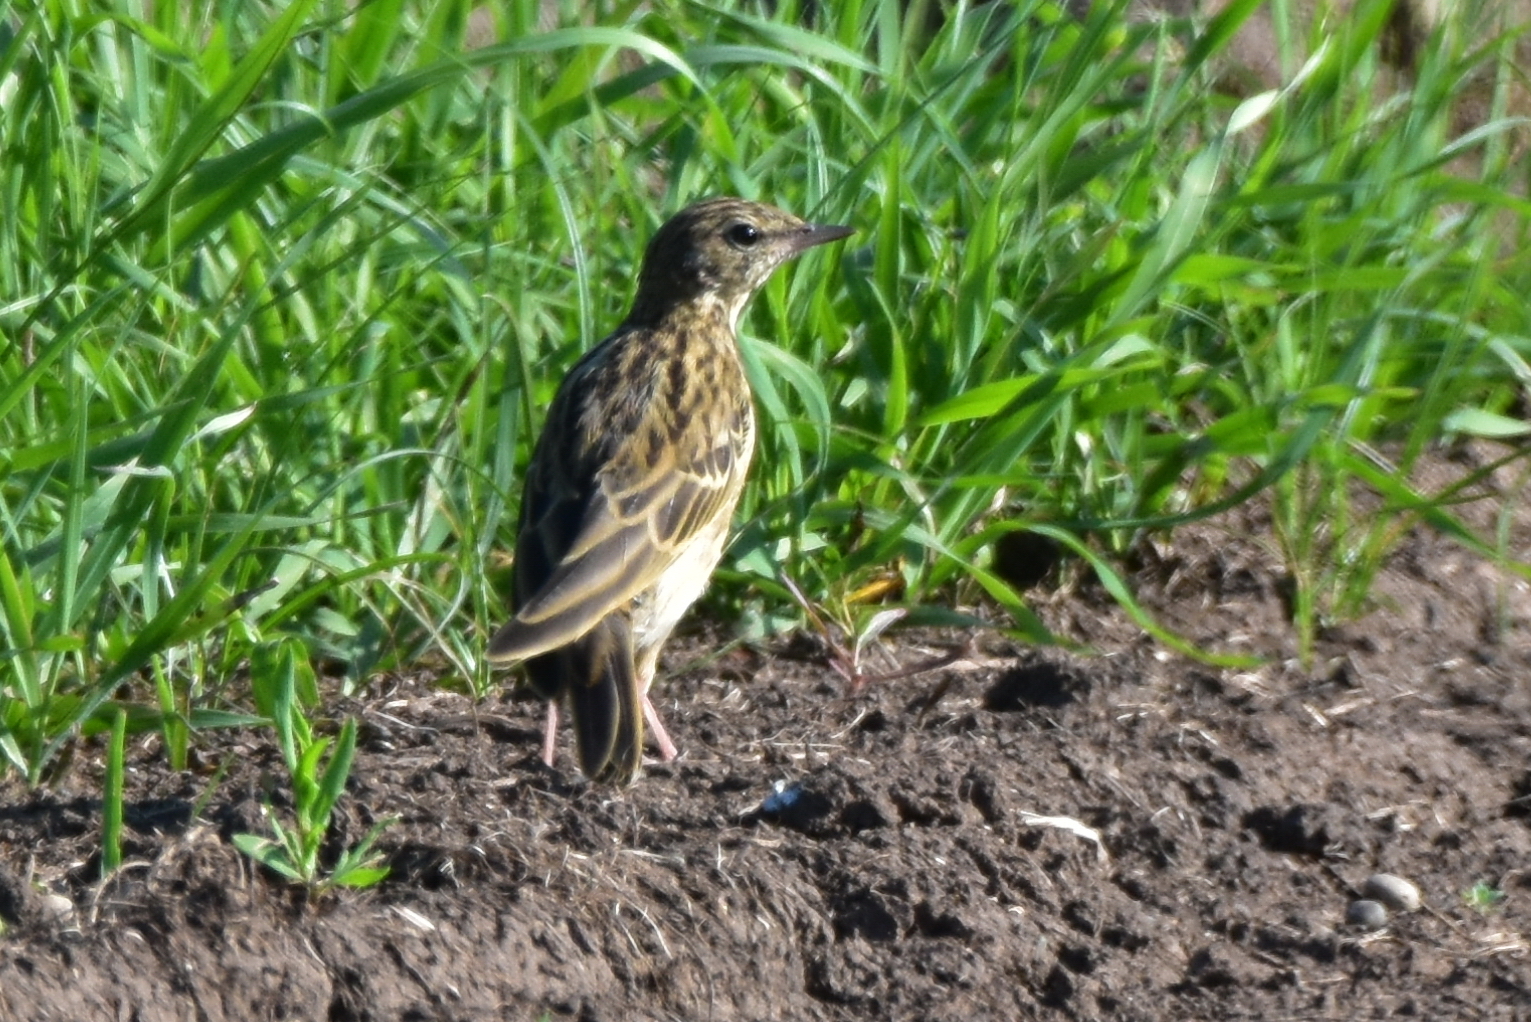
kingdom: Animalia
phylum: Chordata
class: Aves
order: Passeriformes
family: Motacillidae
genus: Anthus
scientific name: Anthus trivialis
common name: Tree pipit
